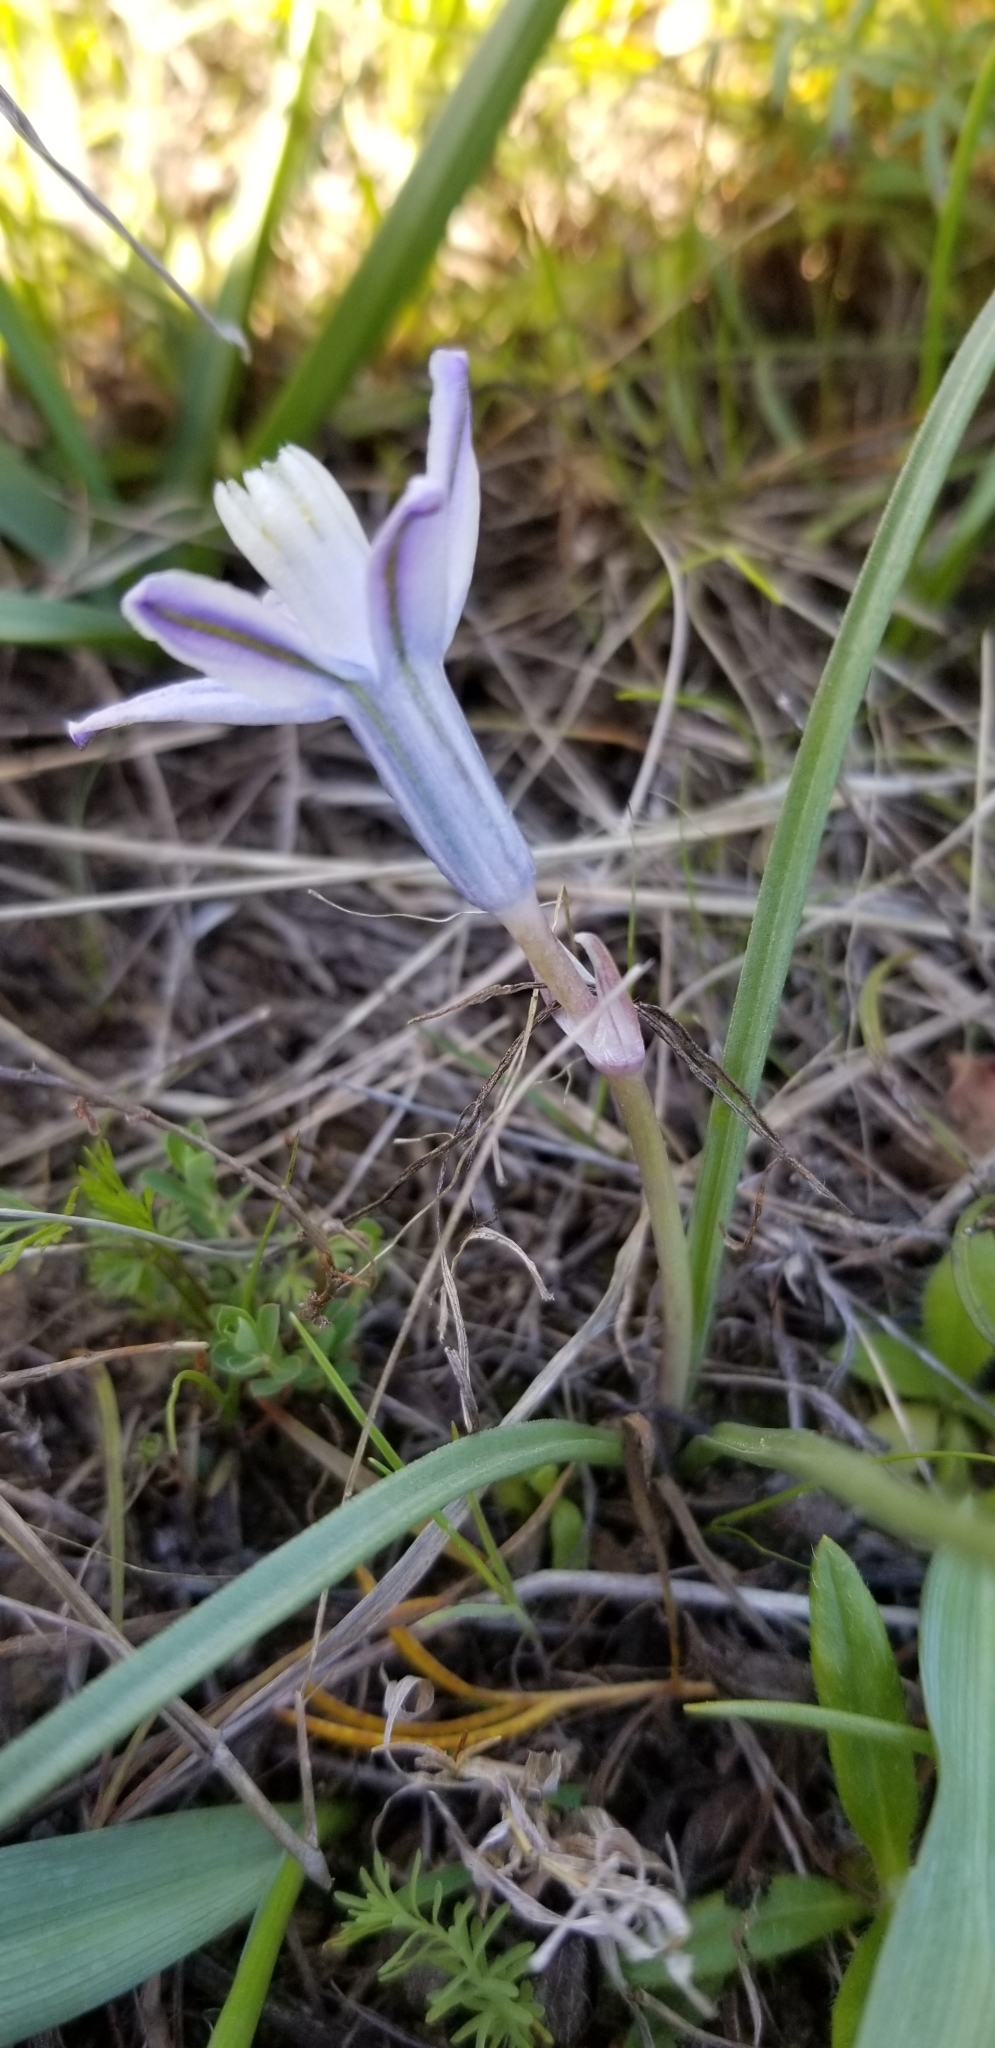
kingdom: Plantae
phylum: Tracheophyta
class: Liliopsida
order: Asparagales
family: Asparagaceae
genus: Androstephium
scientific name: Androstephium coeruleum
